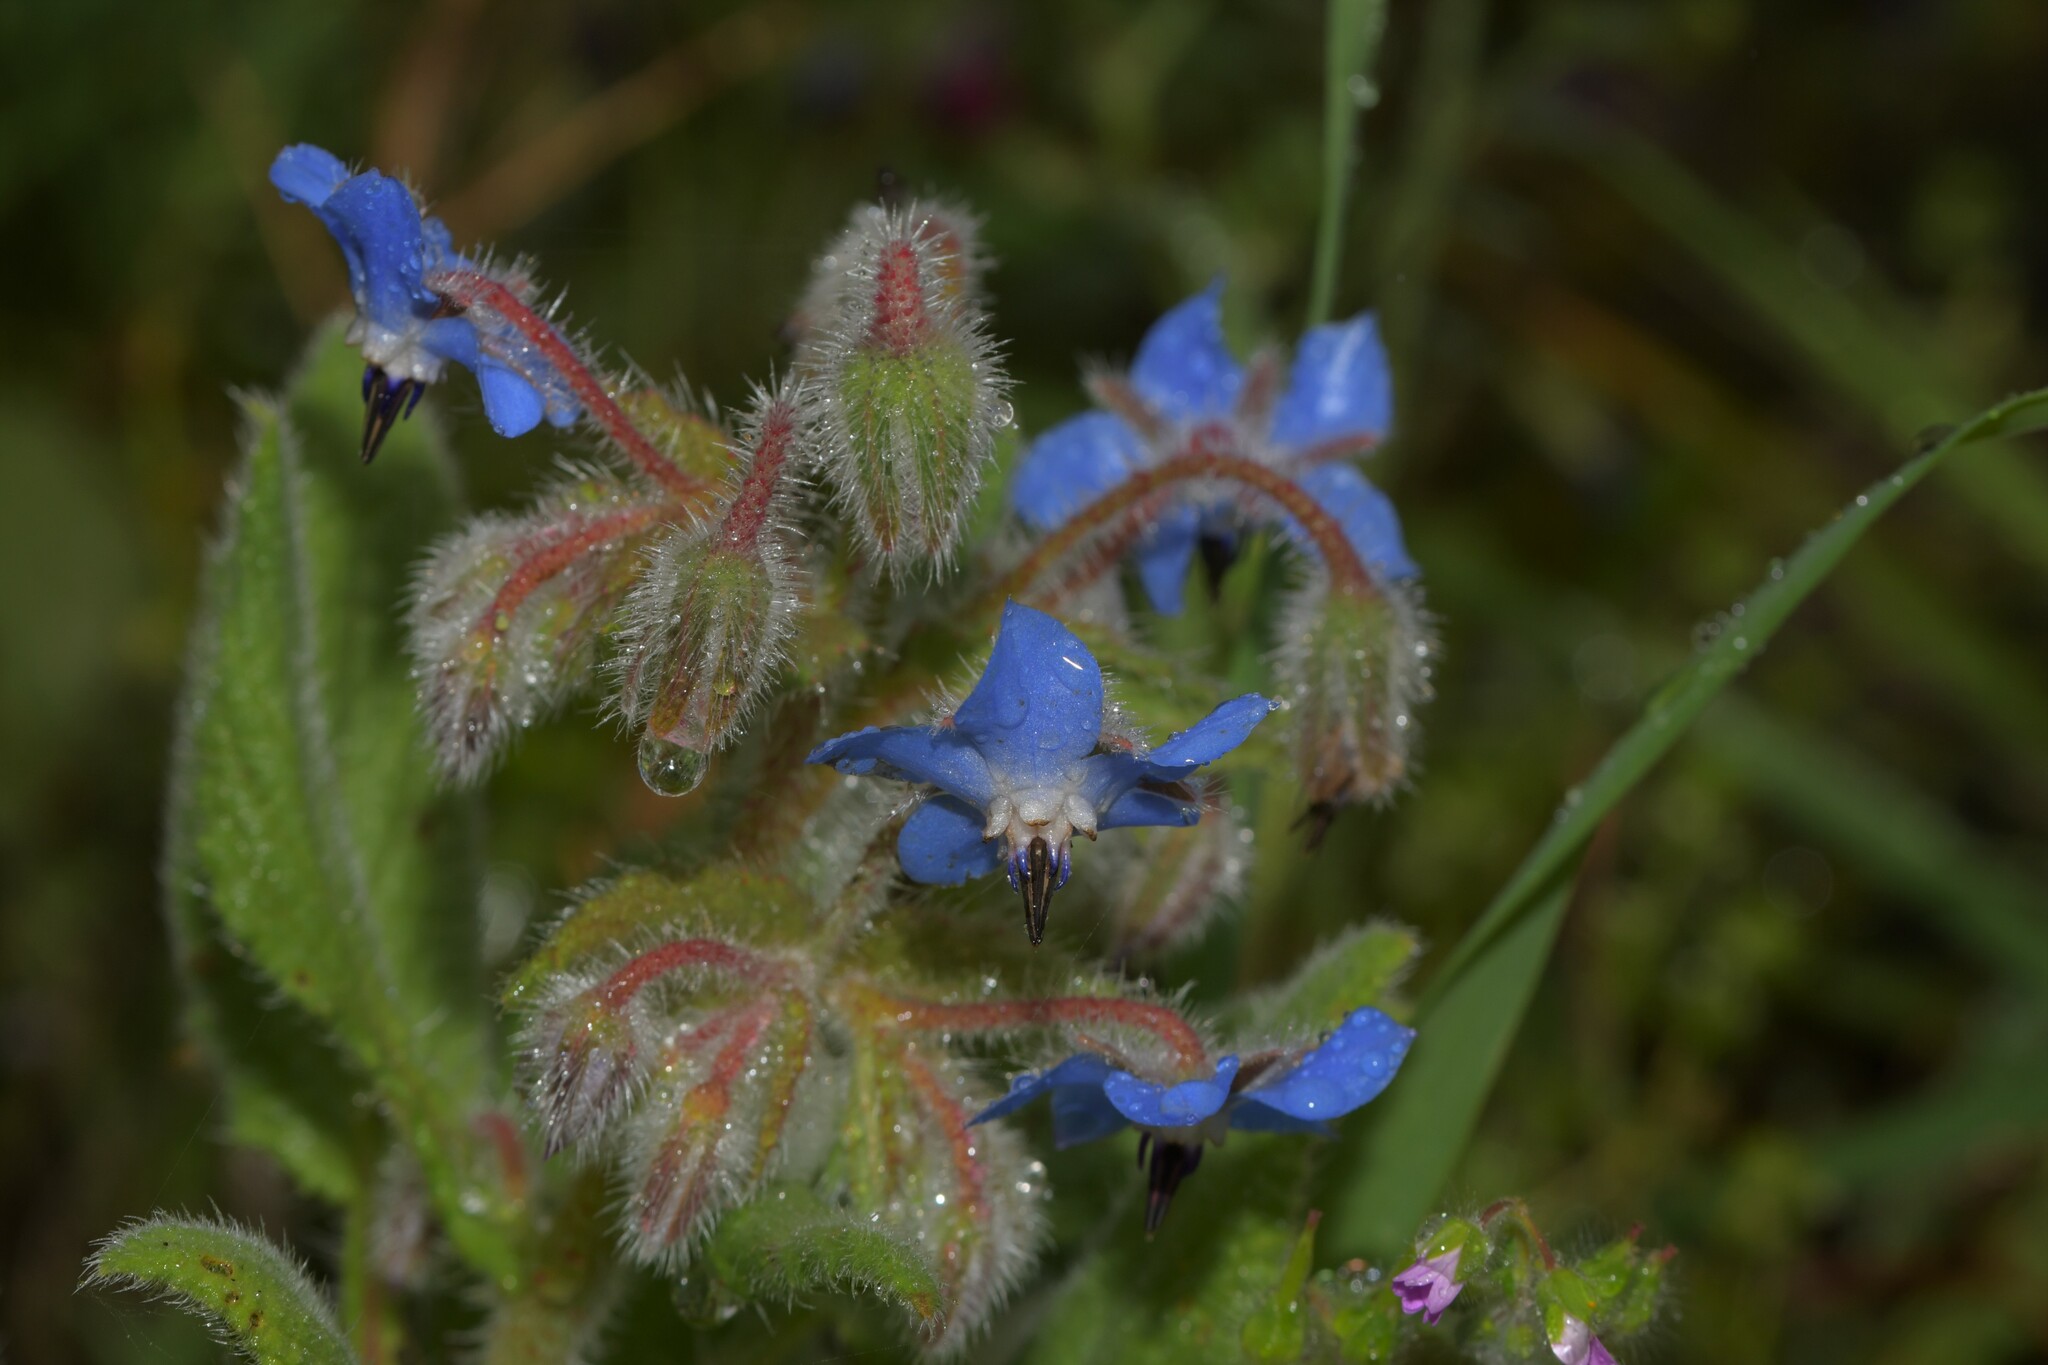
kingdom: Plantae
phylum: Tracheophyta
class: Magnoliopsida
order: Boraginales
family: Boraginaceae
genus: Borago
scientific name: Borago officinalis
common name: Borage
